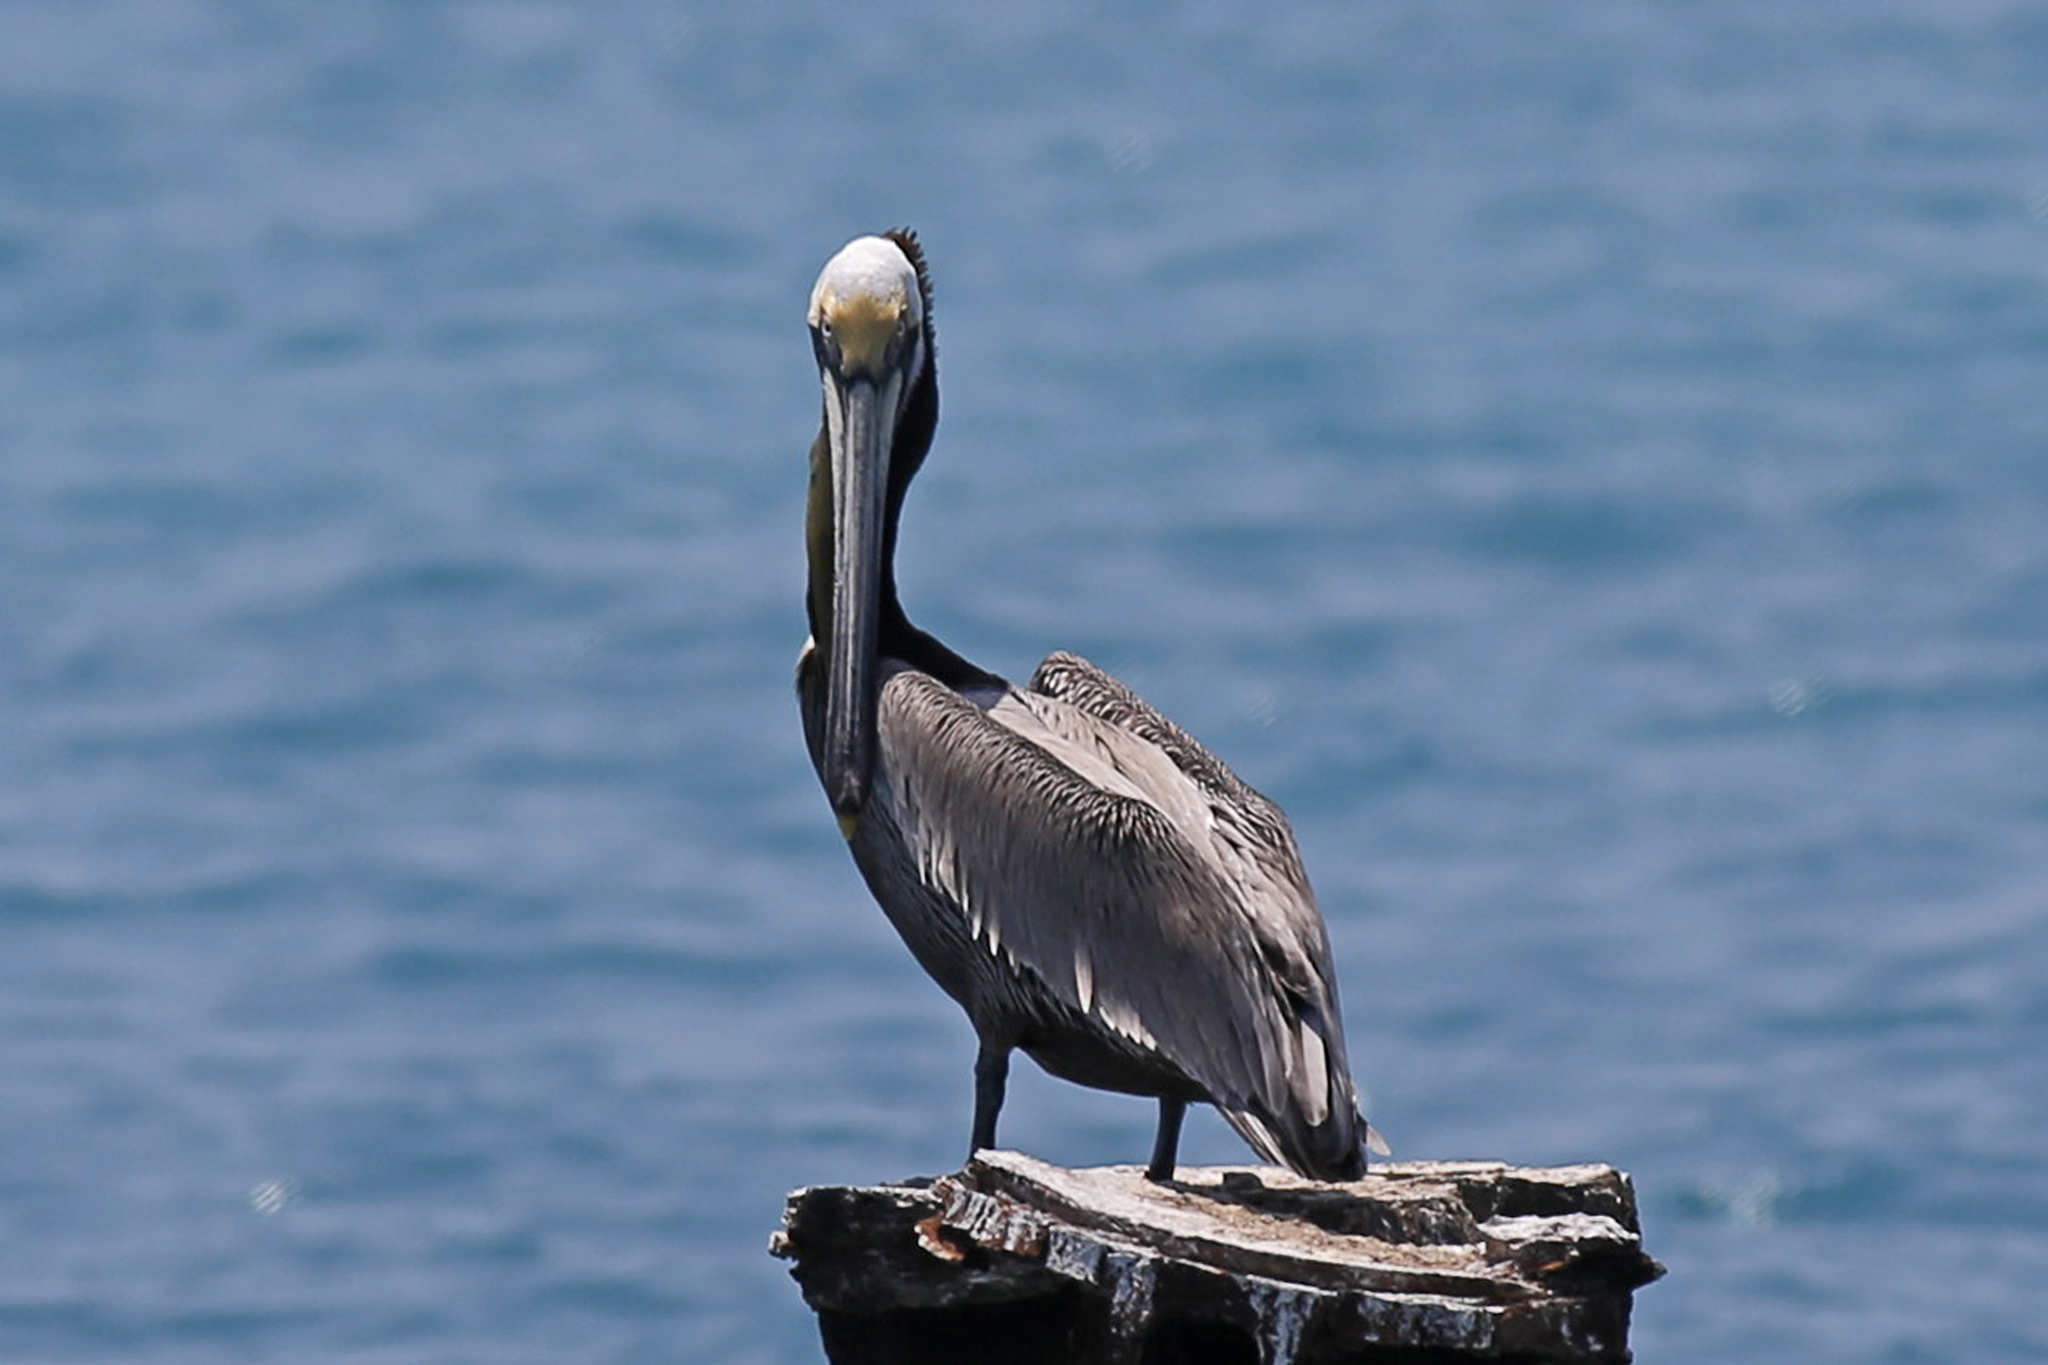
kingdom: Animalia
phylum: Chordata
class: Aves
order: Pelecaniformes
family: Pelecanidae
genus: Pelecanus
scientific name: Pelecanus occidentalis
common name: Brown pelican
